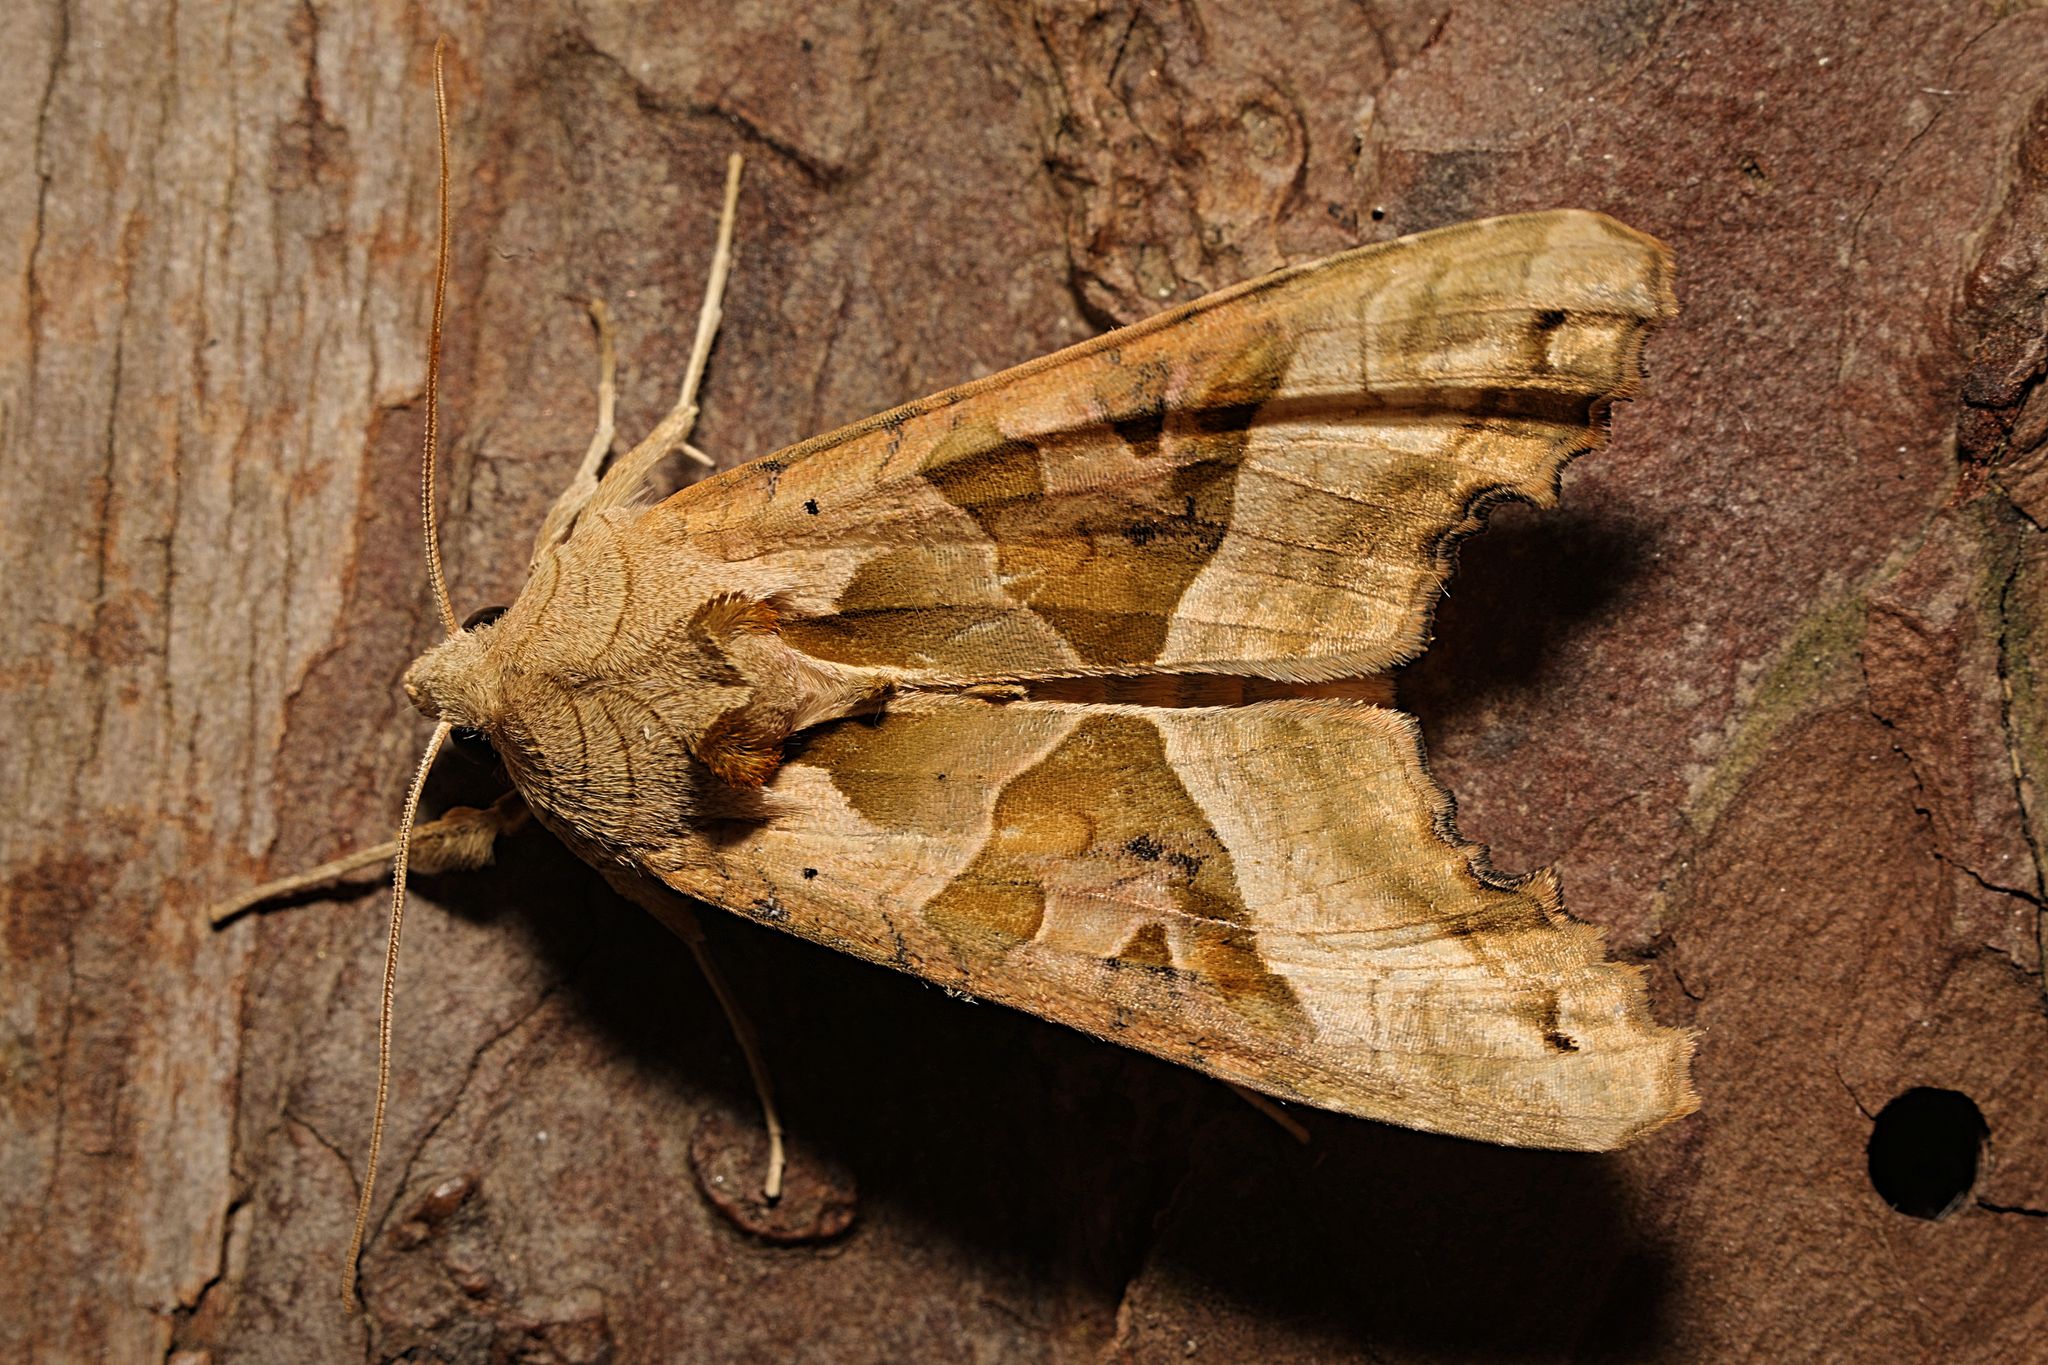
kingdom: Animalia
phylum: Arthropoda
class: Insecta
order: Lepidoptera
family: Noctuidae
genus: Phlogophora
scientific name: Phlogophora meticulosa
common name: Angle shades
